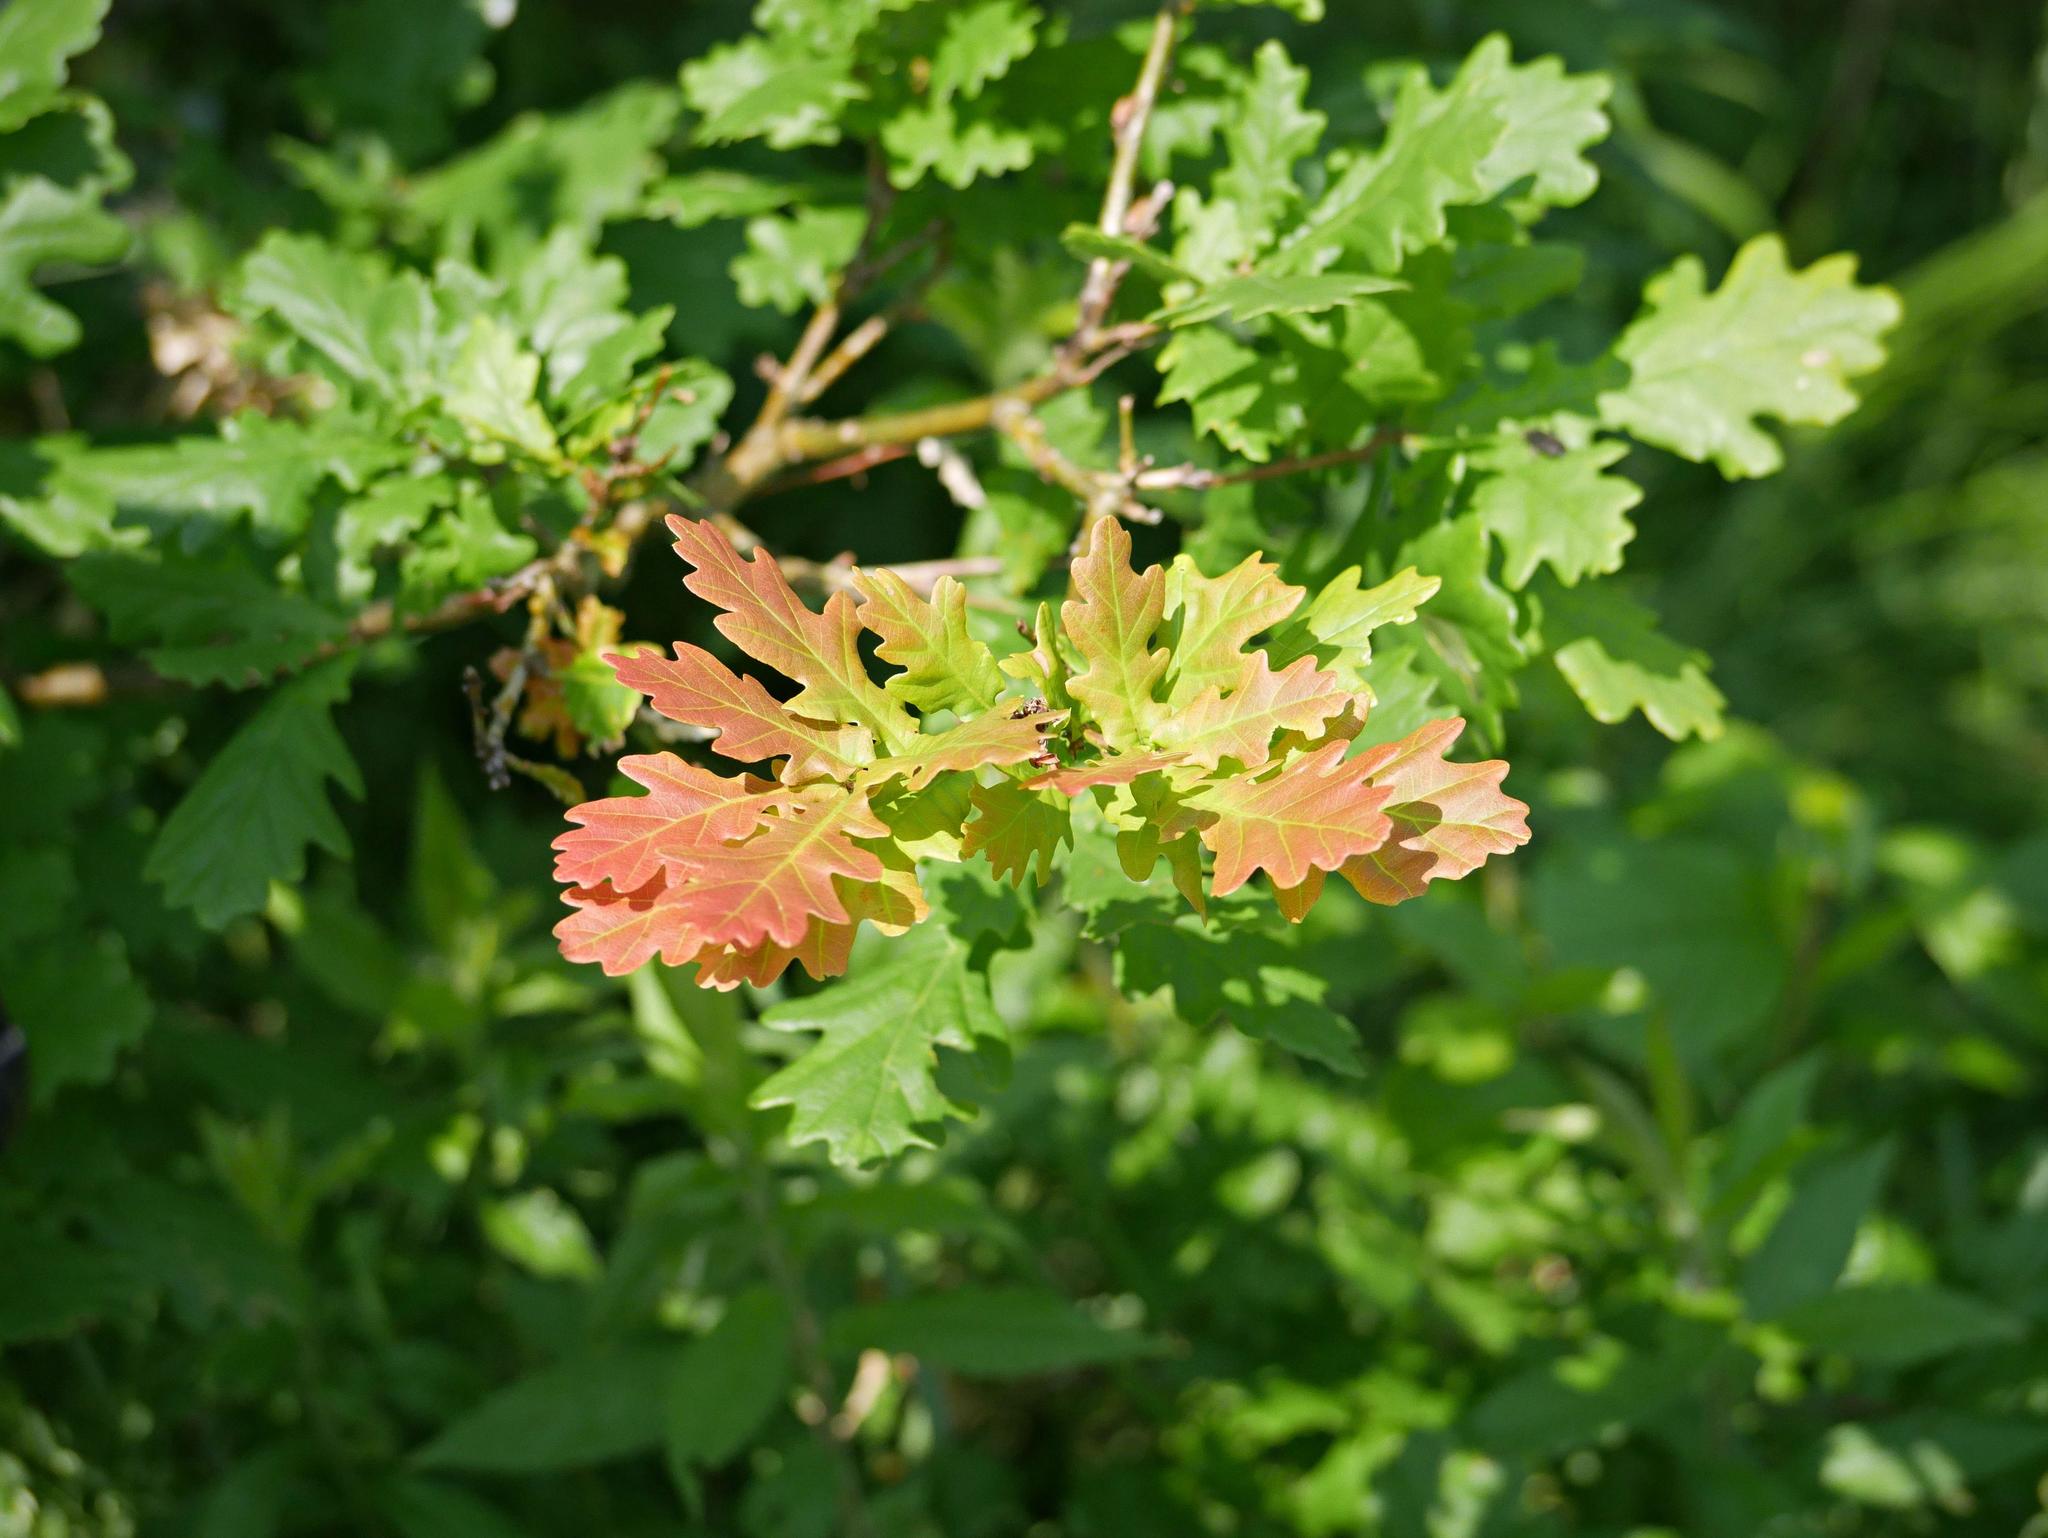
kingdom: Plantae
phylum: Tracheophyta
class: Magnoliopsida
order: Fagales
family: Fagaceae
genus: Quercus
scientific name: Quercus robur
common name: Pedunculate oak
